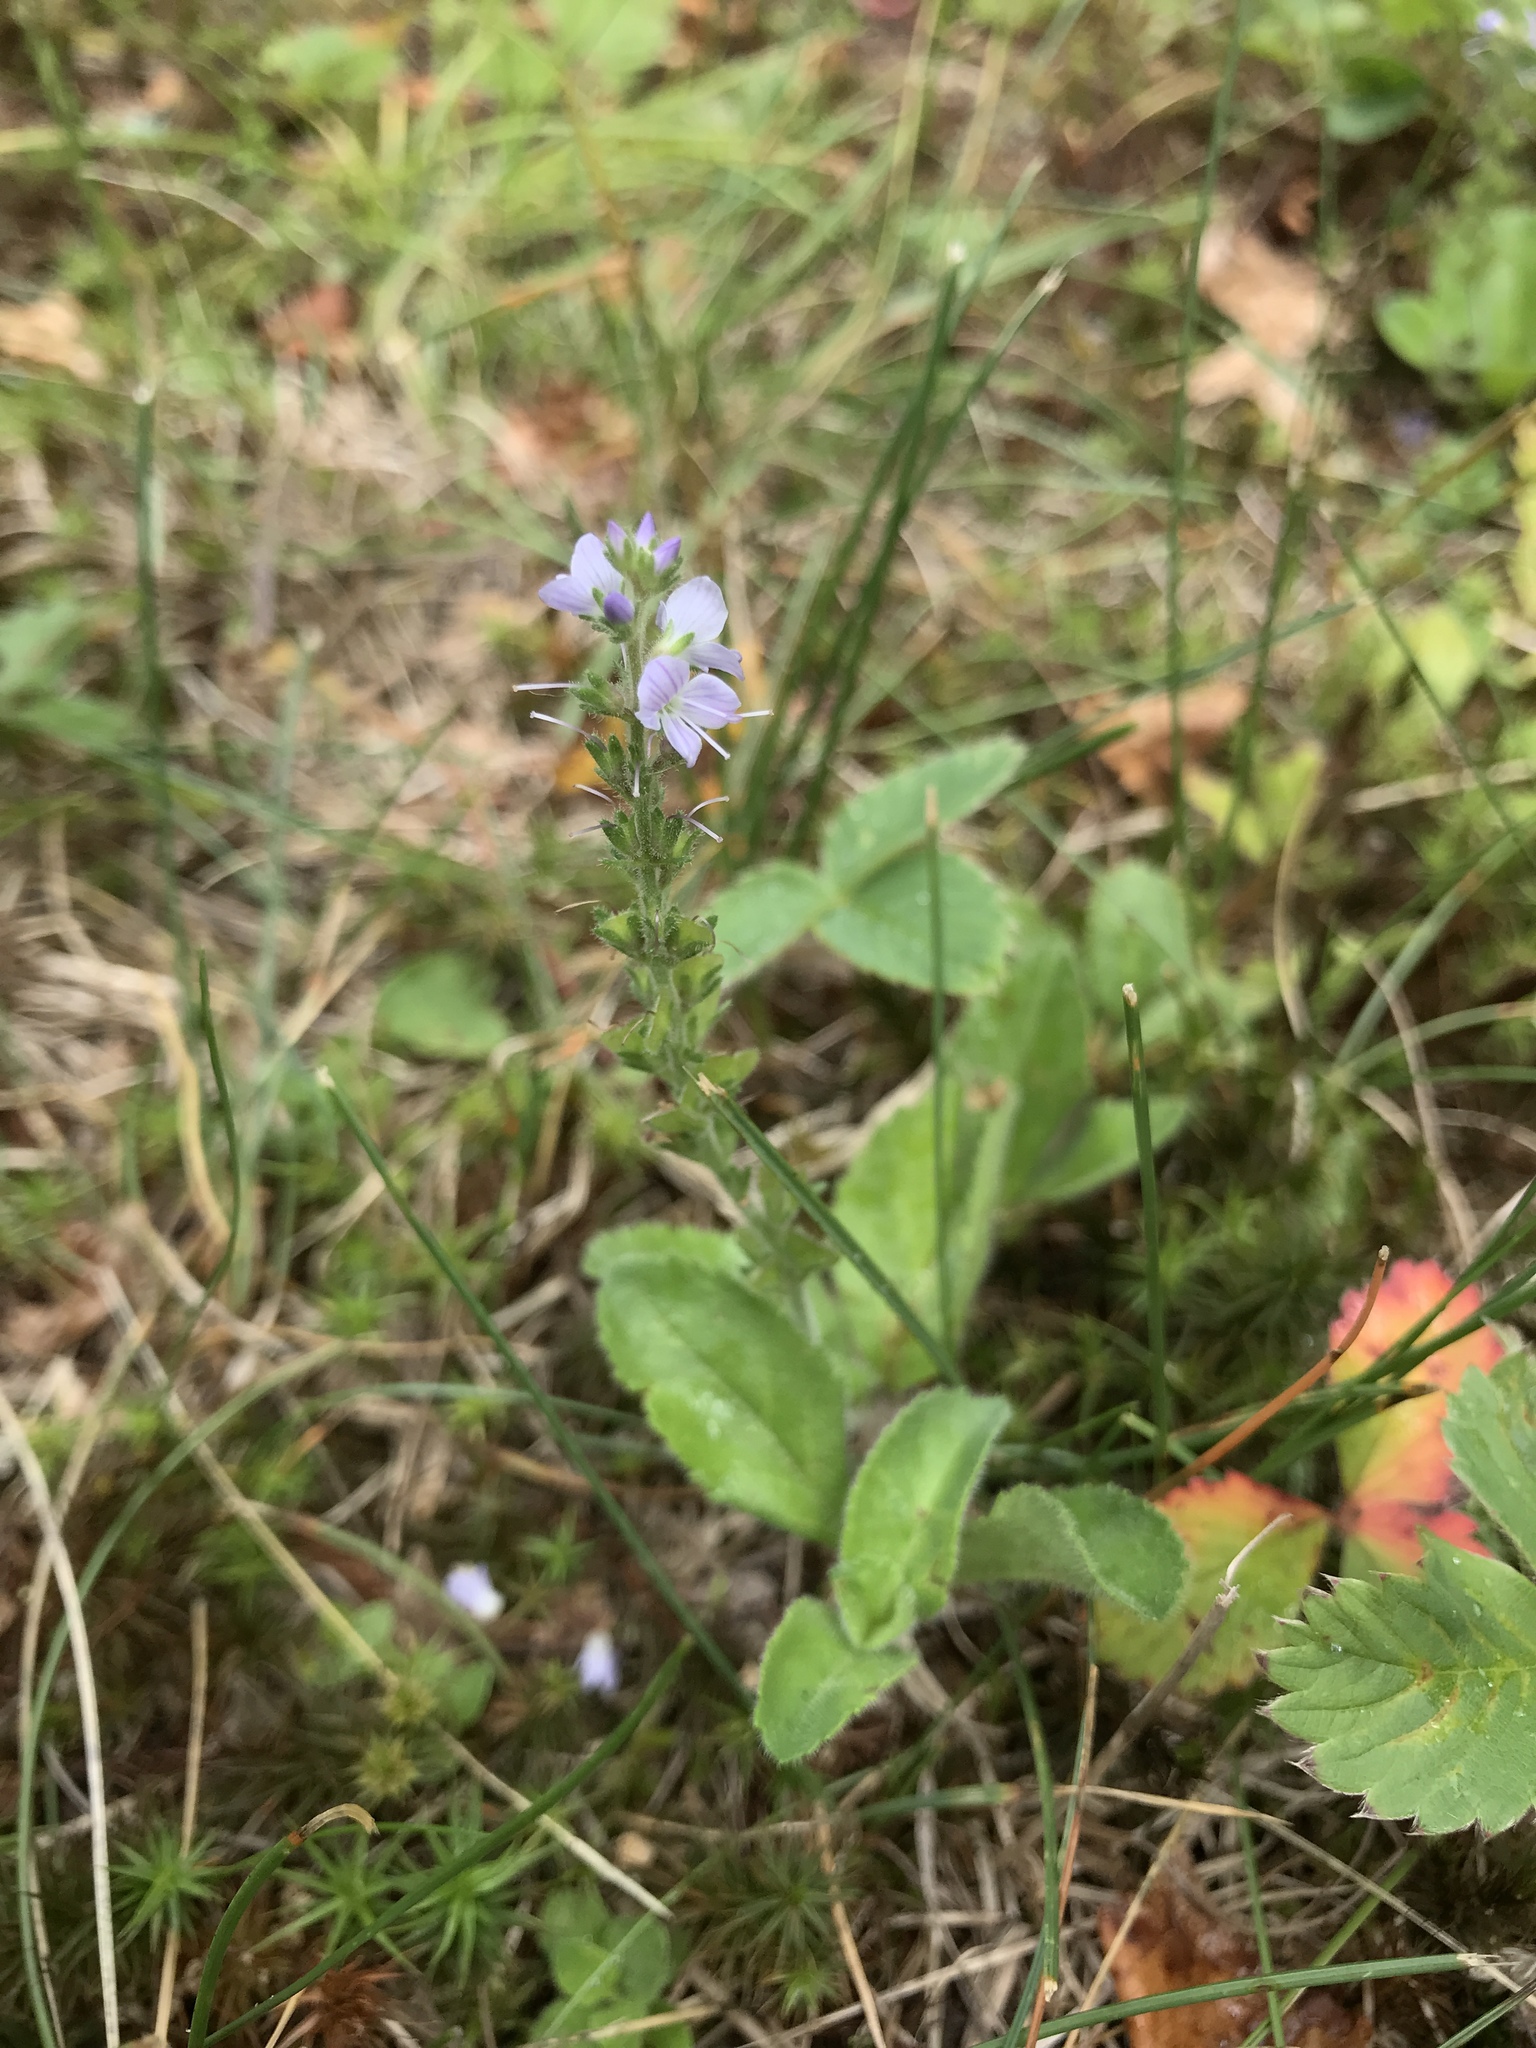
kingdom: Plantae
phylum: Tracheophyta
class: Magnoliopsida
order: Lamiales
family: Plantaginaceae
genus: Veronica
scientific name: Veronica officinalis
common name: Common speedwell
